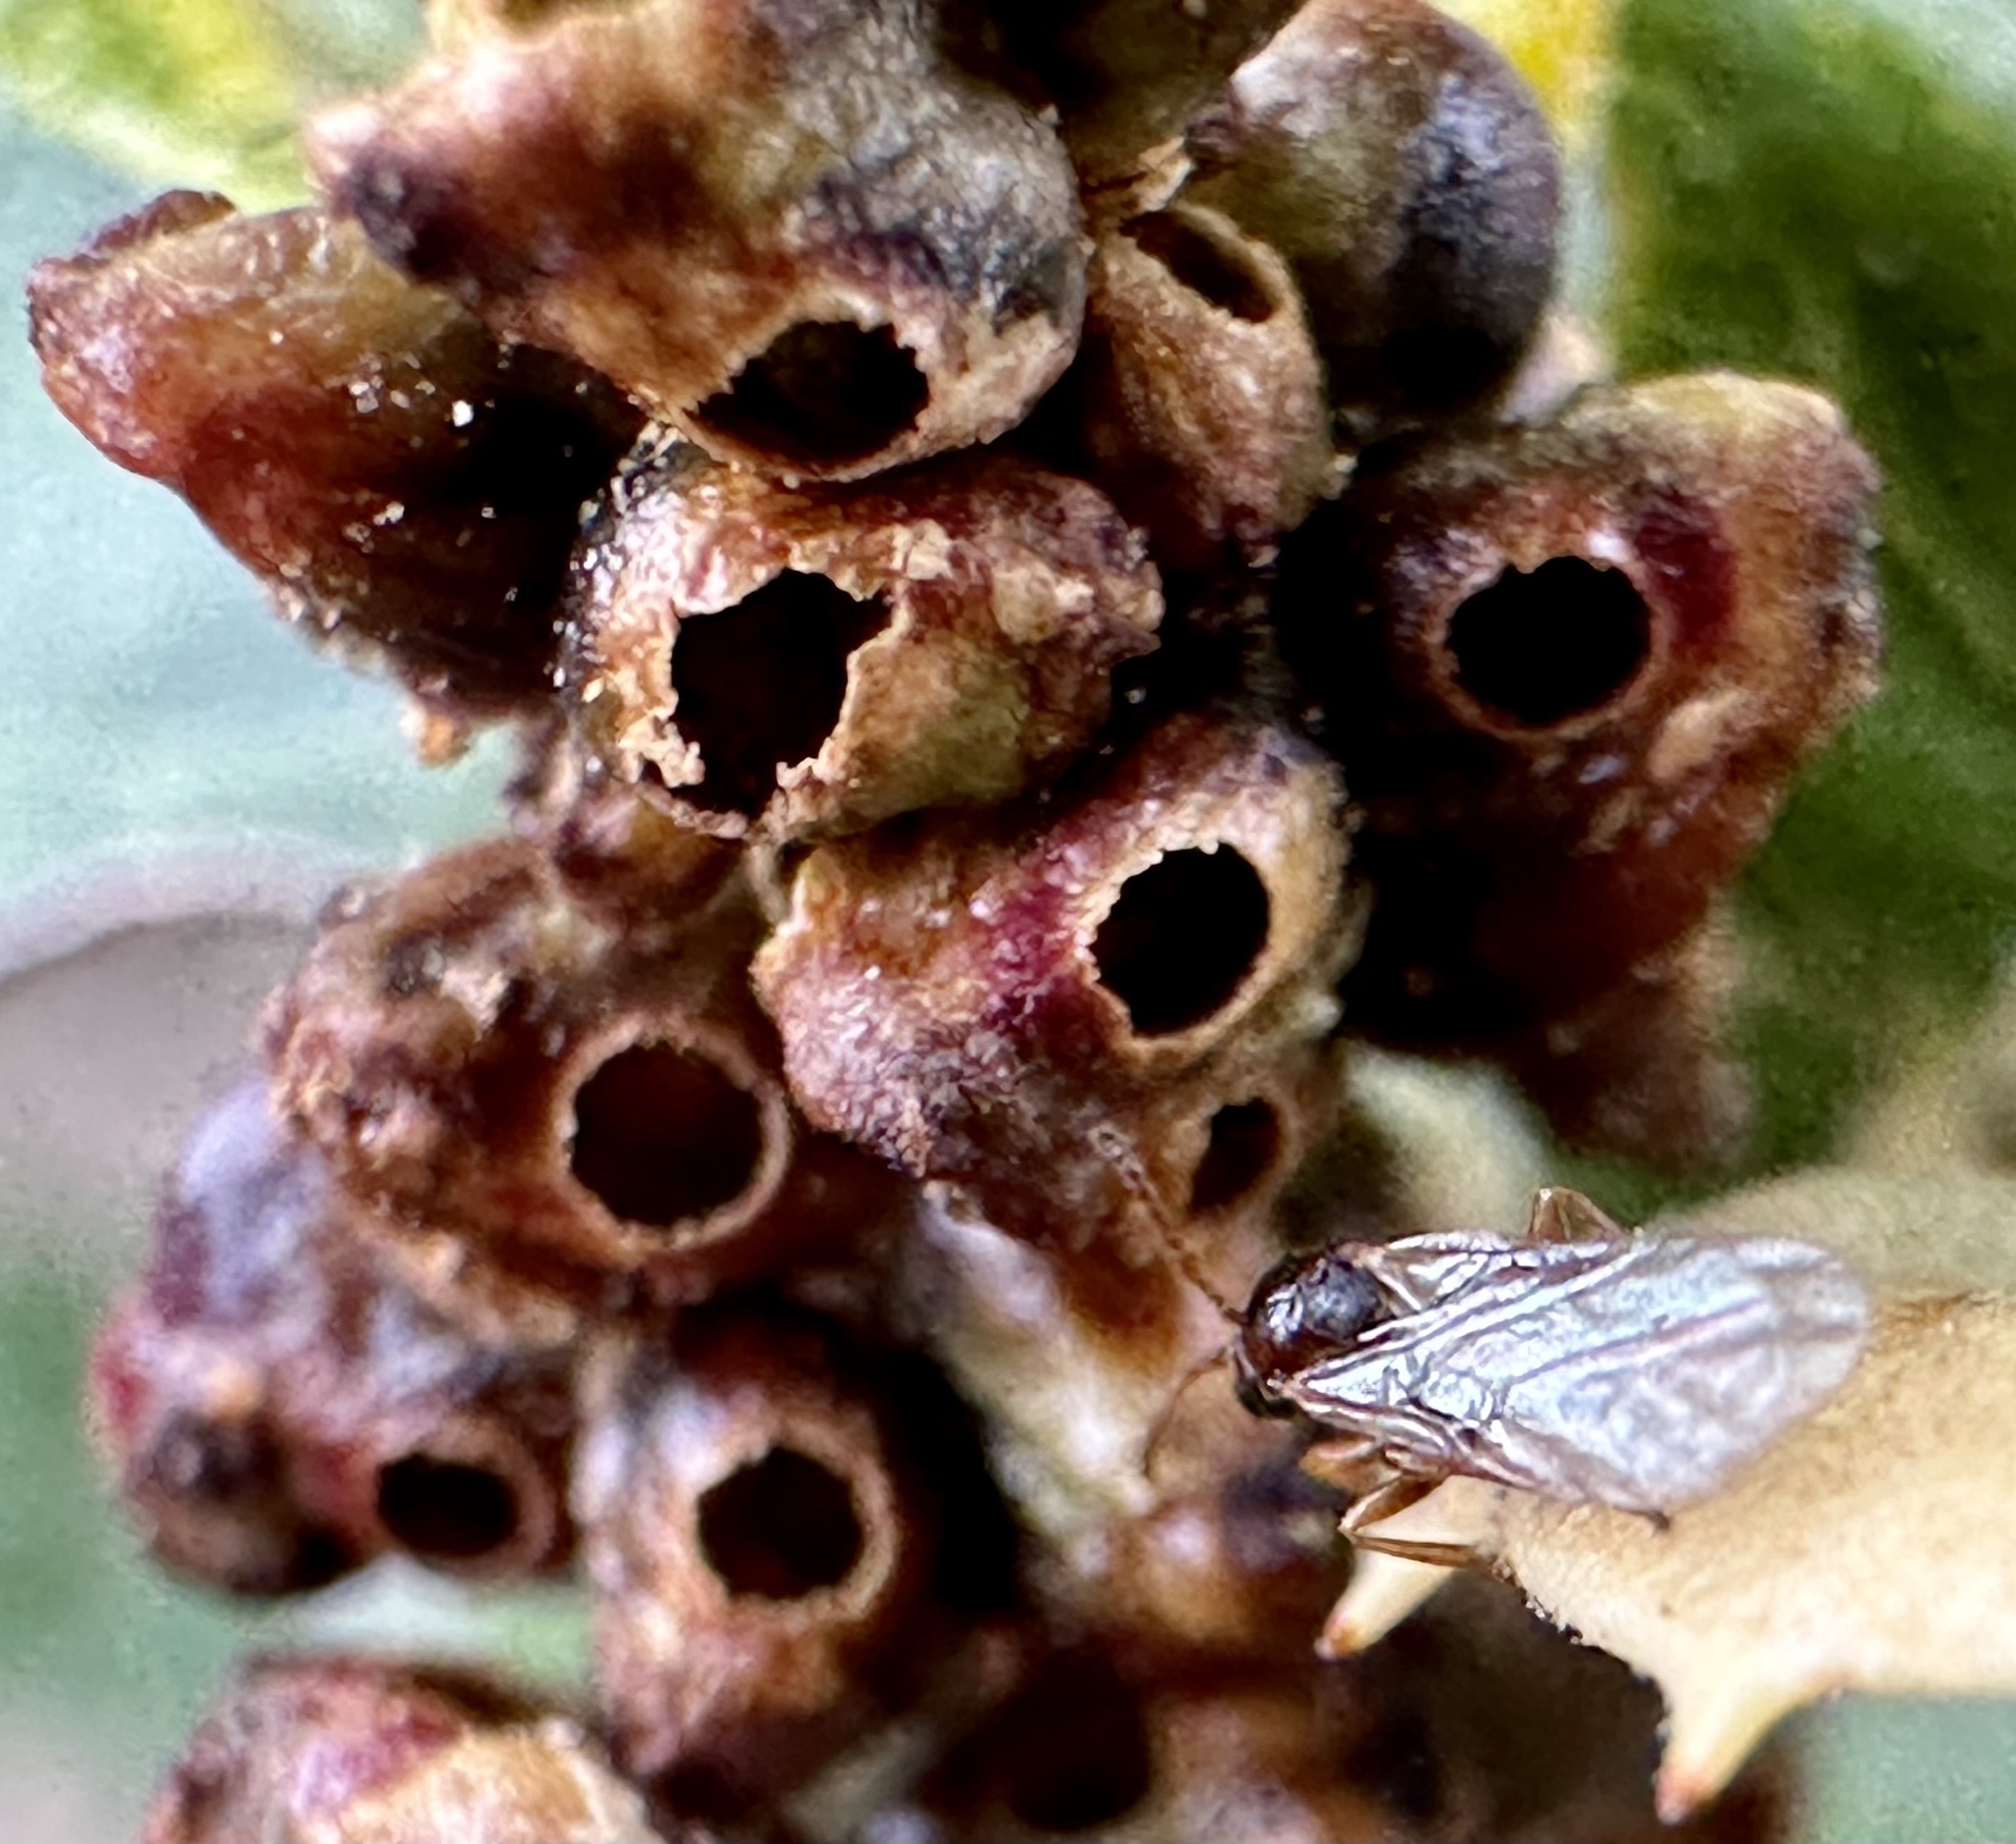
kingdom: Animalia
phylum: Arthropoda
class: Insecta
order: Hymenoptera
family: Cynipidae
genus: Dryocosmus
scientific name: Dryocosmus
